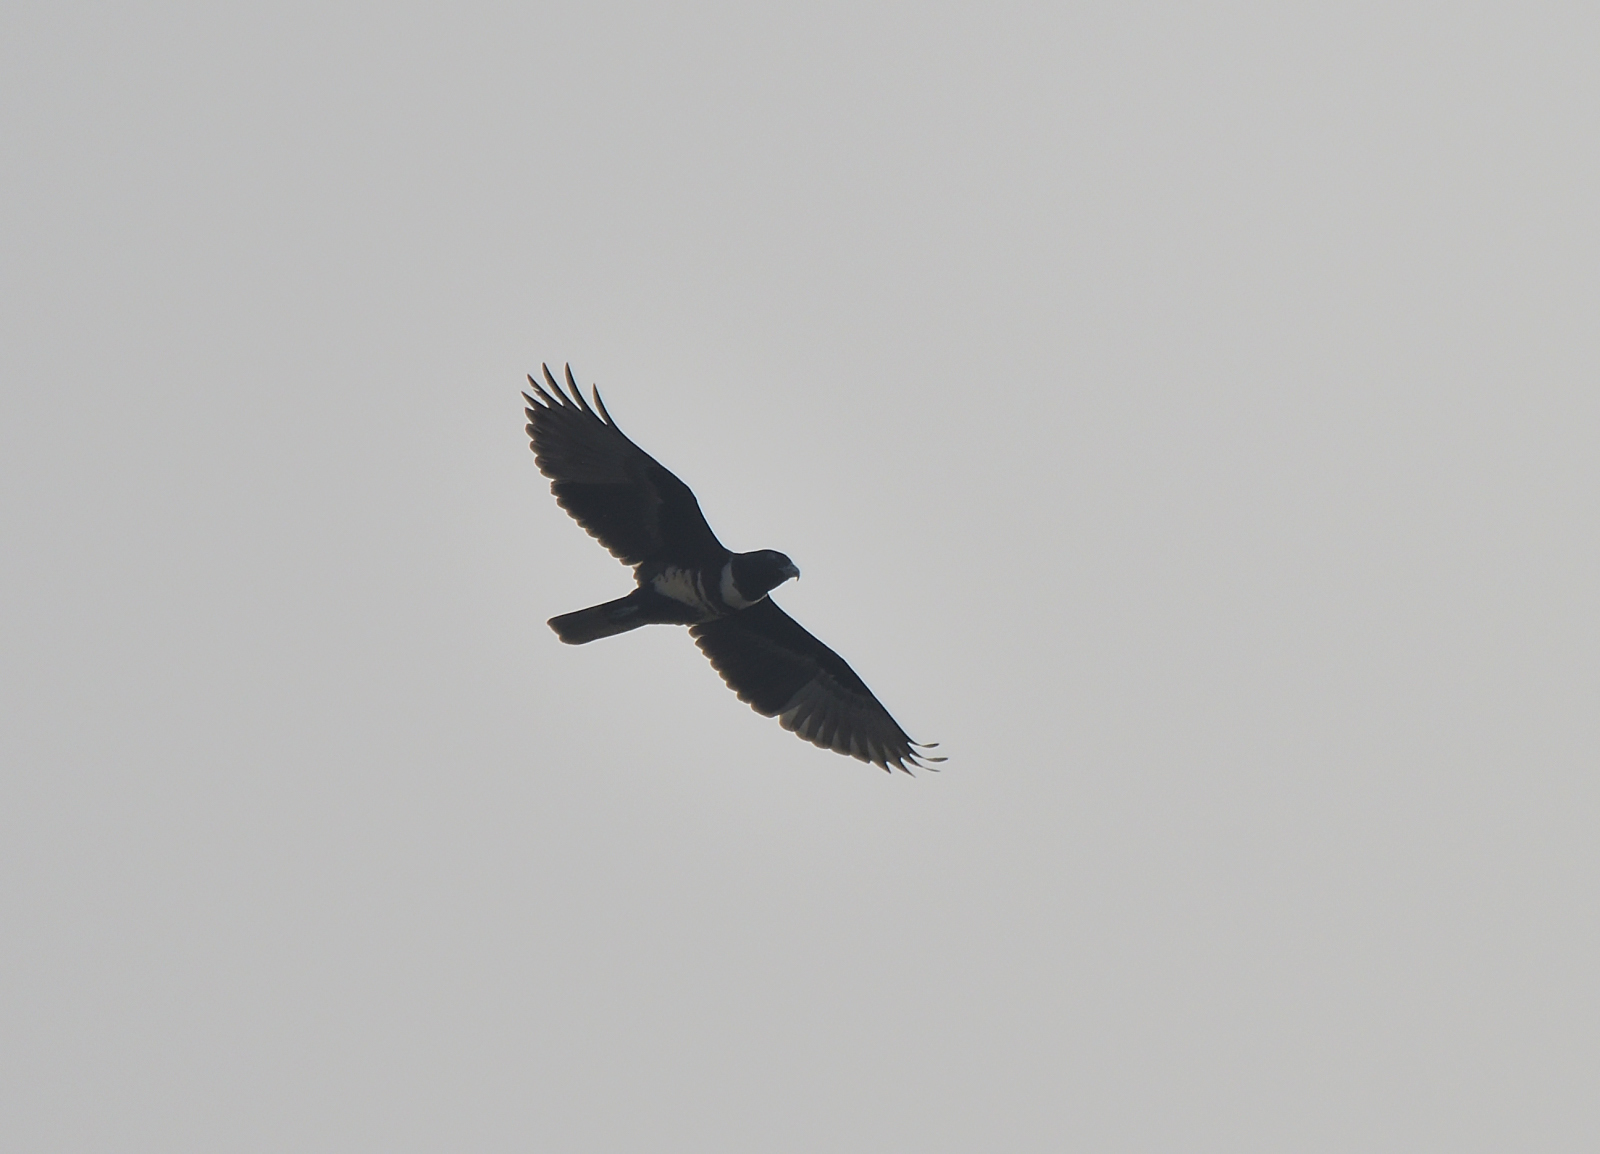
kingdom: Animalia
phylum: Chordata
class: Aves
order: Accipitriformes
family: Accipitridae
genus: Aviceda
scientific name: Aviceda leuphotes
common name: Black baza
